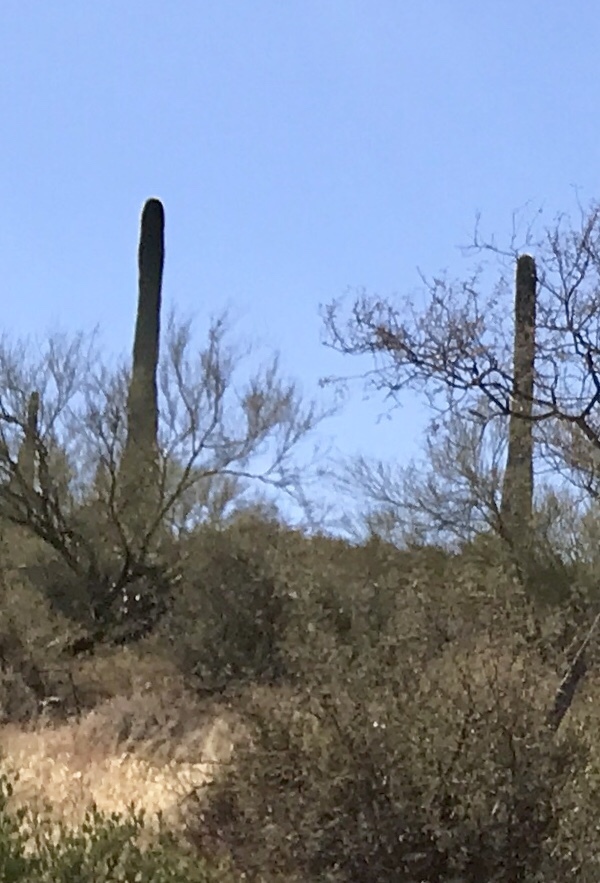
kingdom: Plantae
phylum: Tracheophyta
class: Magnoliopsida
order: Caryophyllales
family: Cactaceae
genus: Carnegiea
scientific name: Carnegiea gigantea
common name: Saguaro
